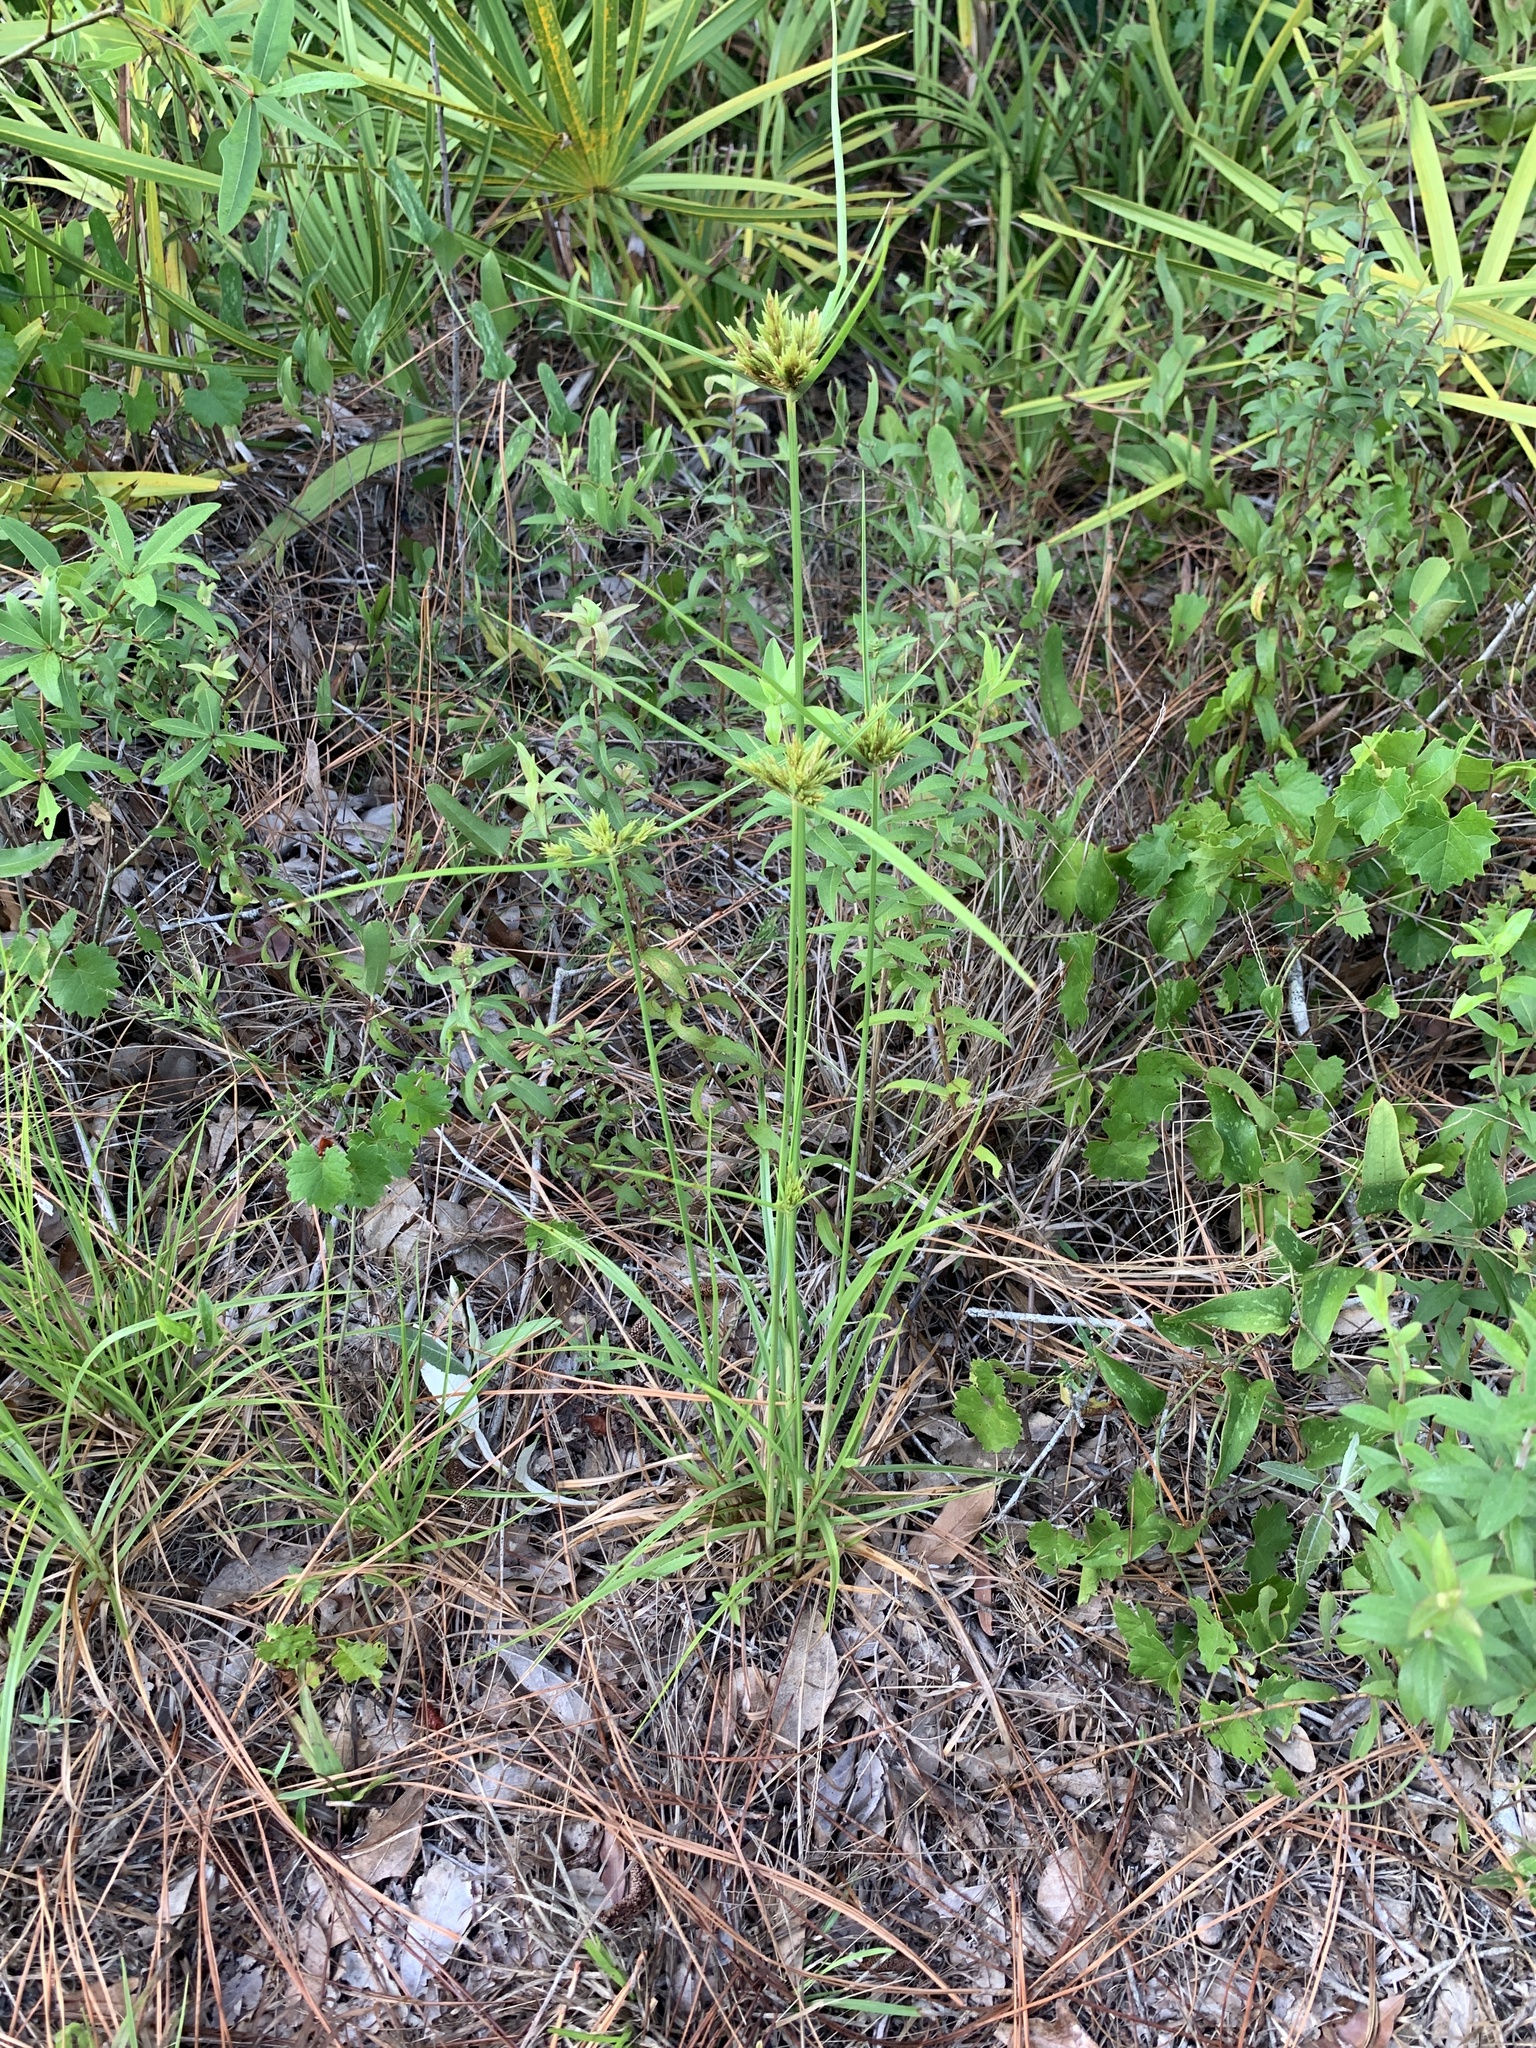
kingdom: Plantae
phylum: Tracheophyta
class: Liliopsida
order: Poales
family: Cyperaceae
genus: Cyperus
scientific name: Cyperus polystachyos
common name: Bunchy flat sedge
